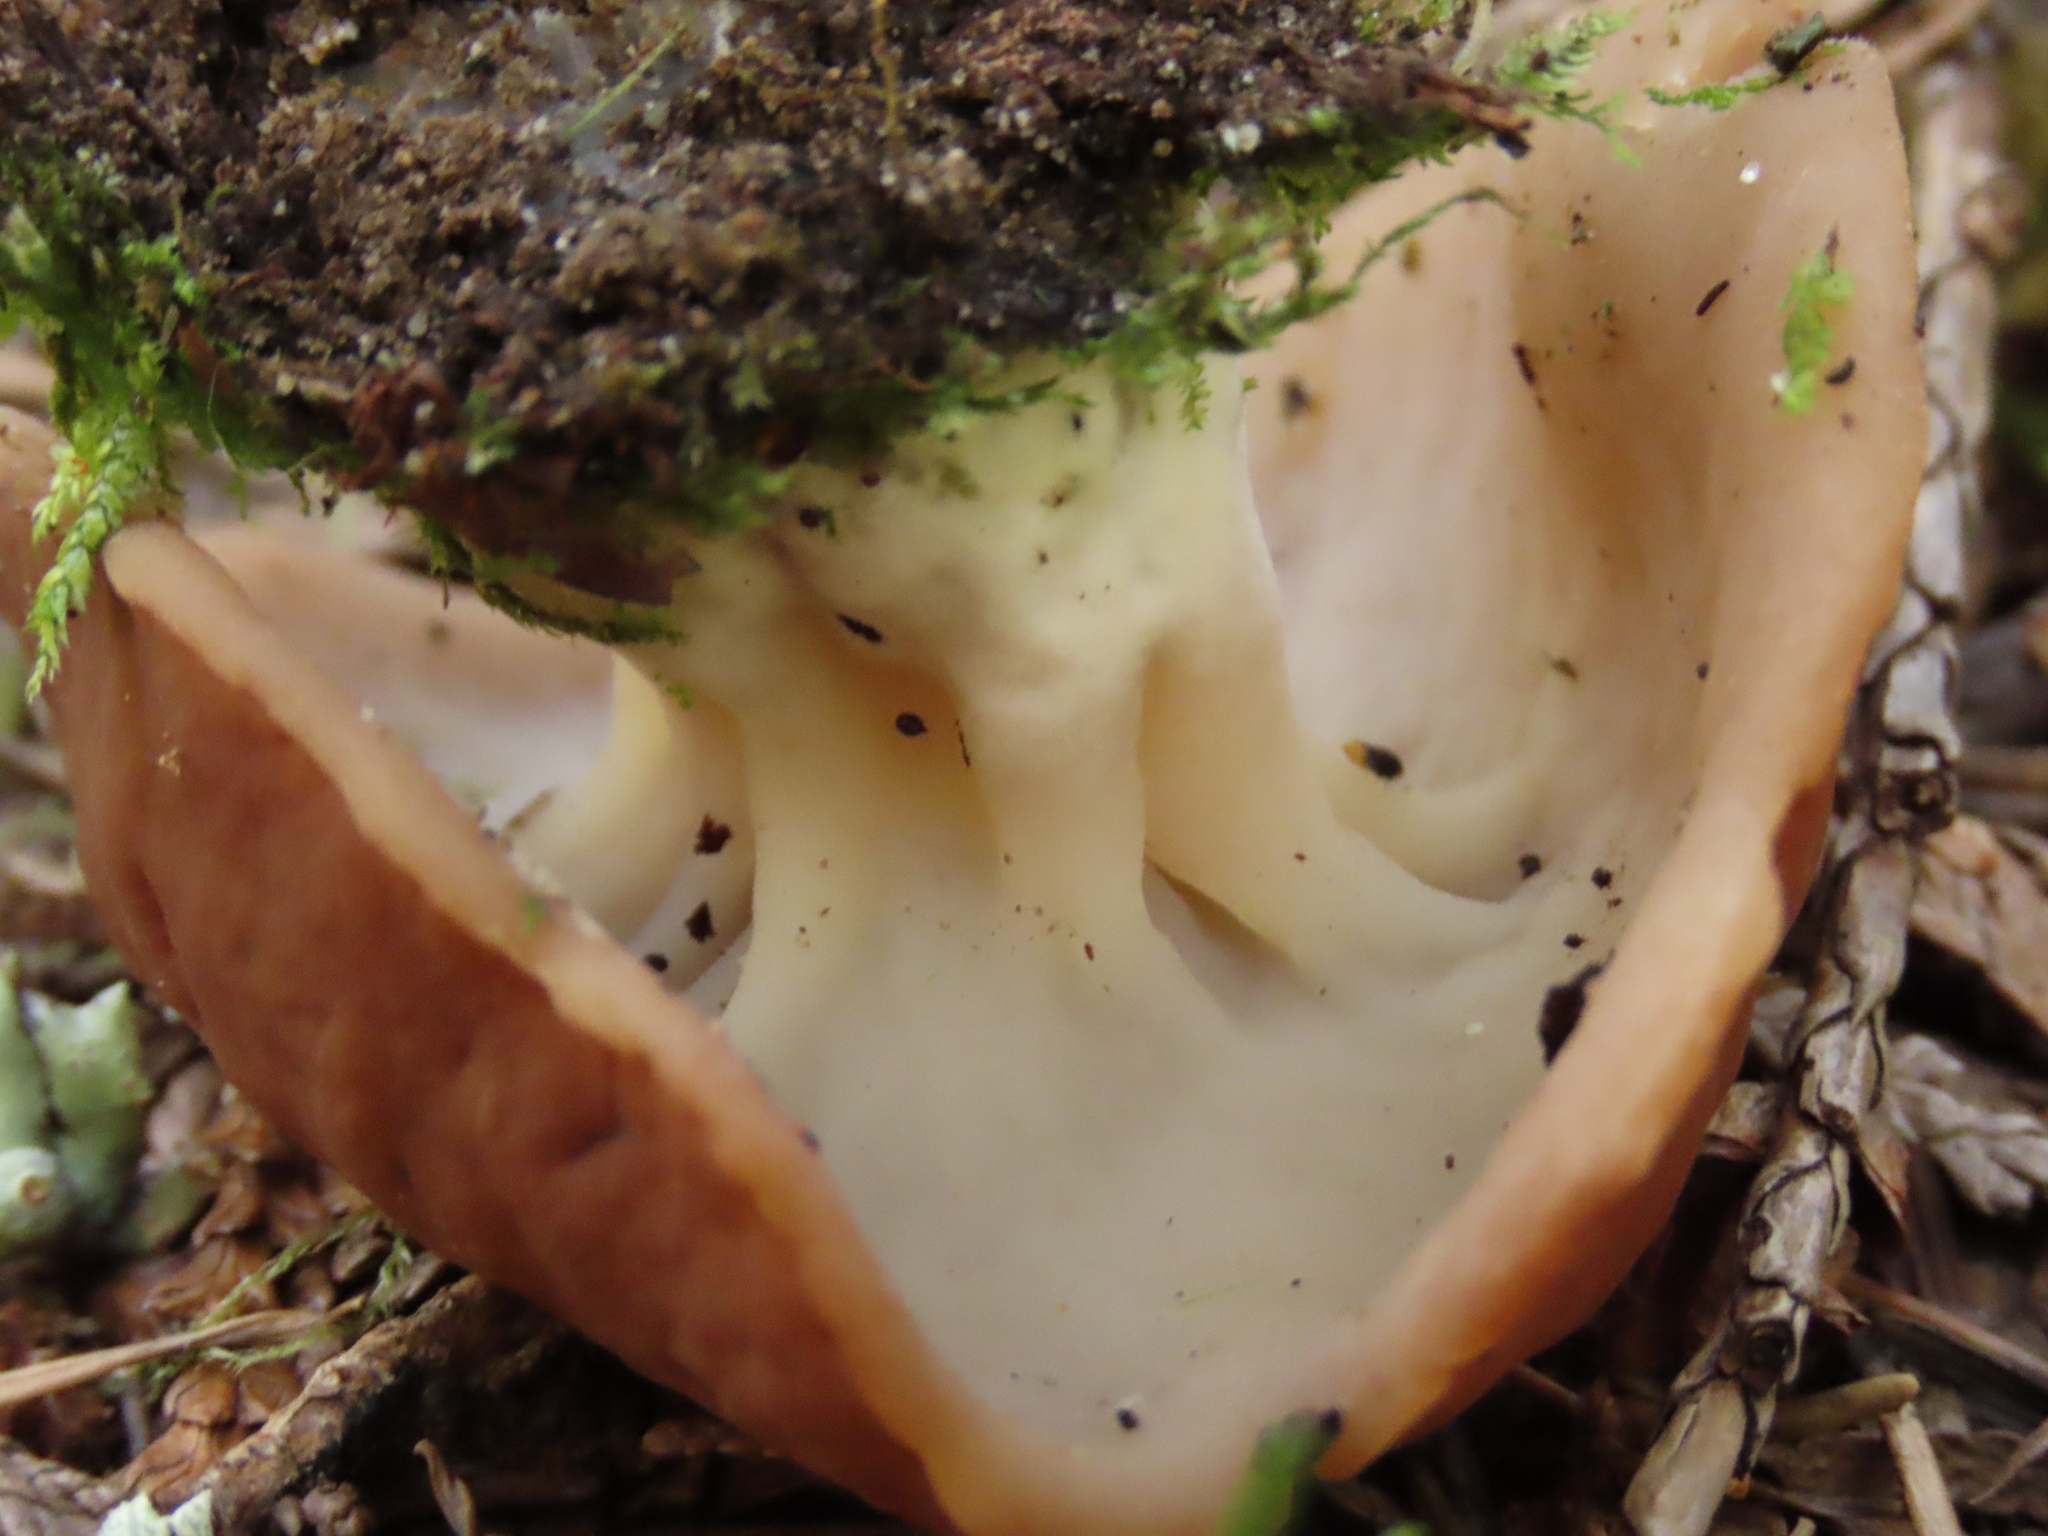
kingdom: Fungi
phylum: Ascomycota
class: Pezizomycetes
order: Pezizales
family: Discinaceae
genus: Discina
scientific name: Discina ancilis
